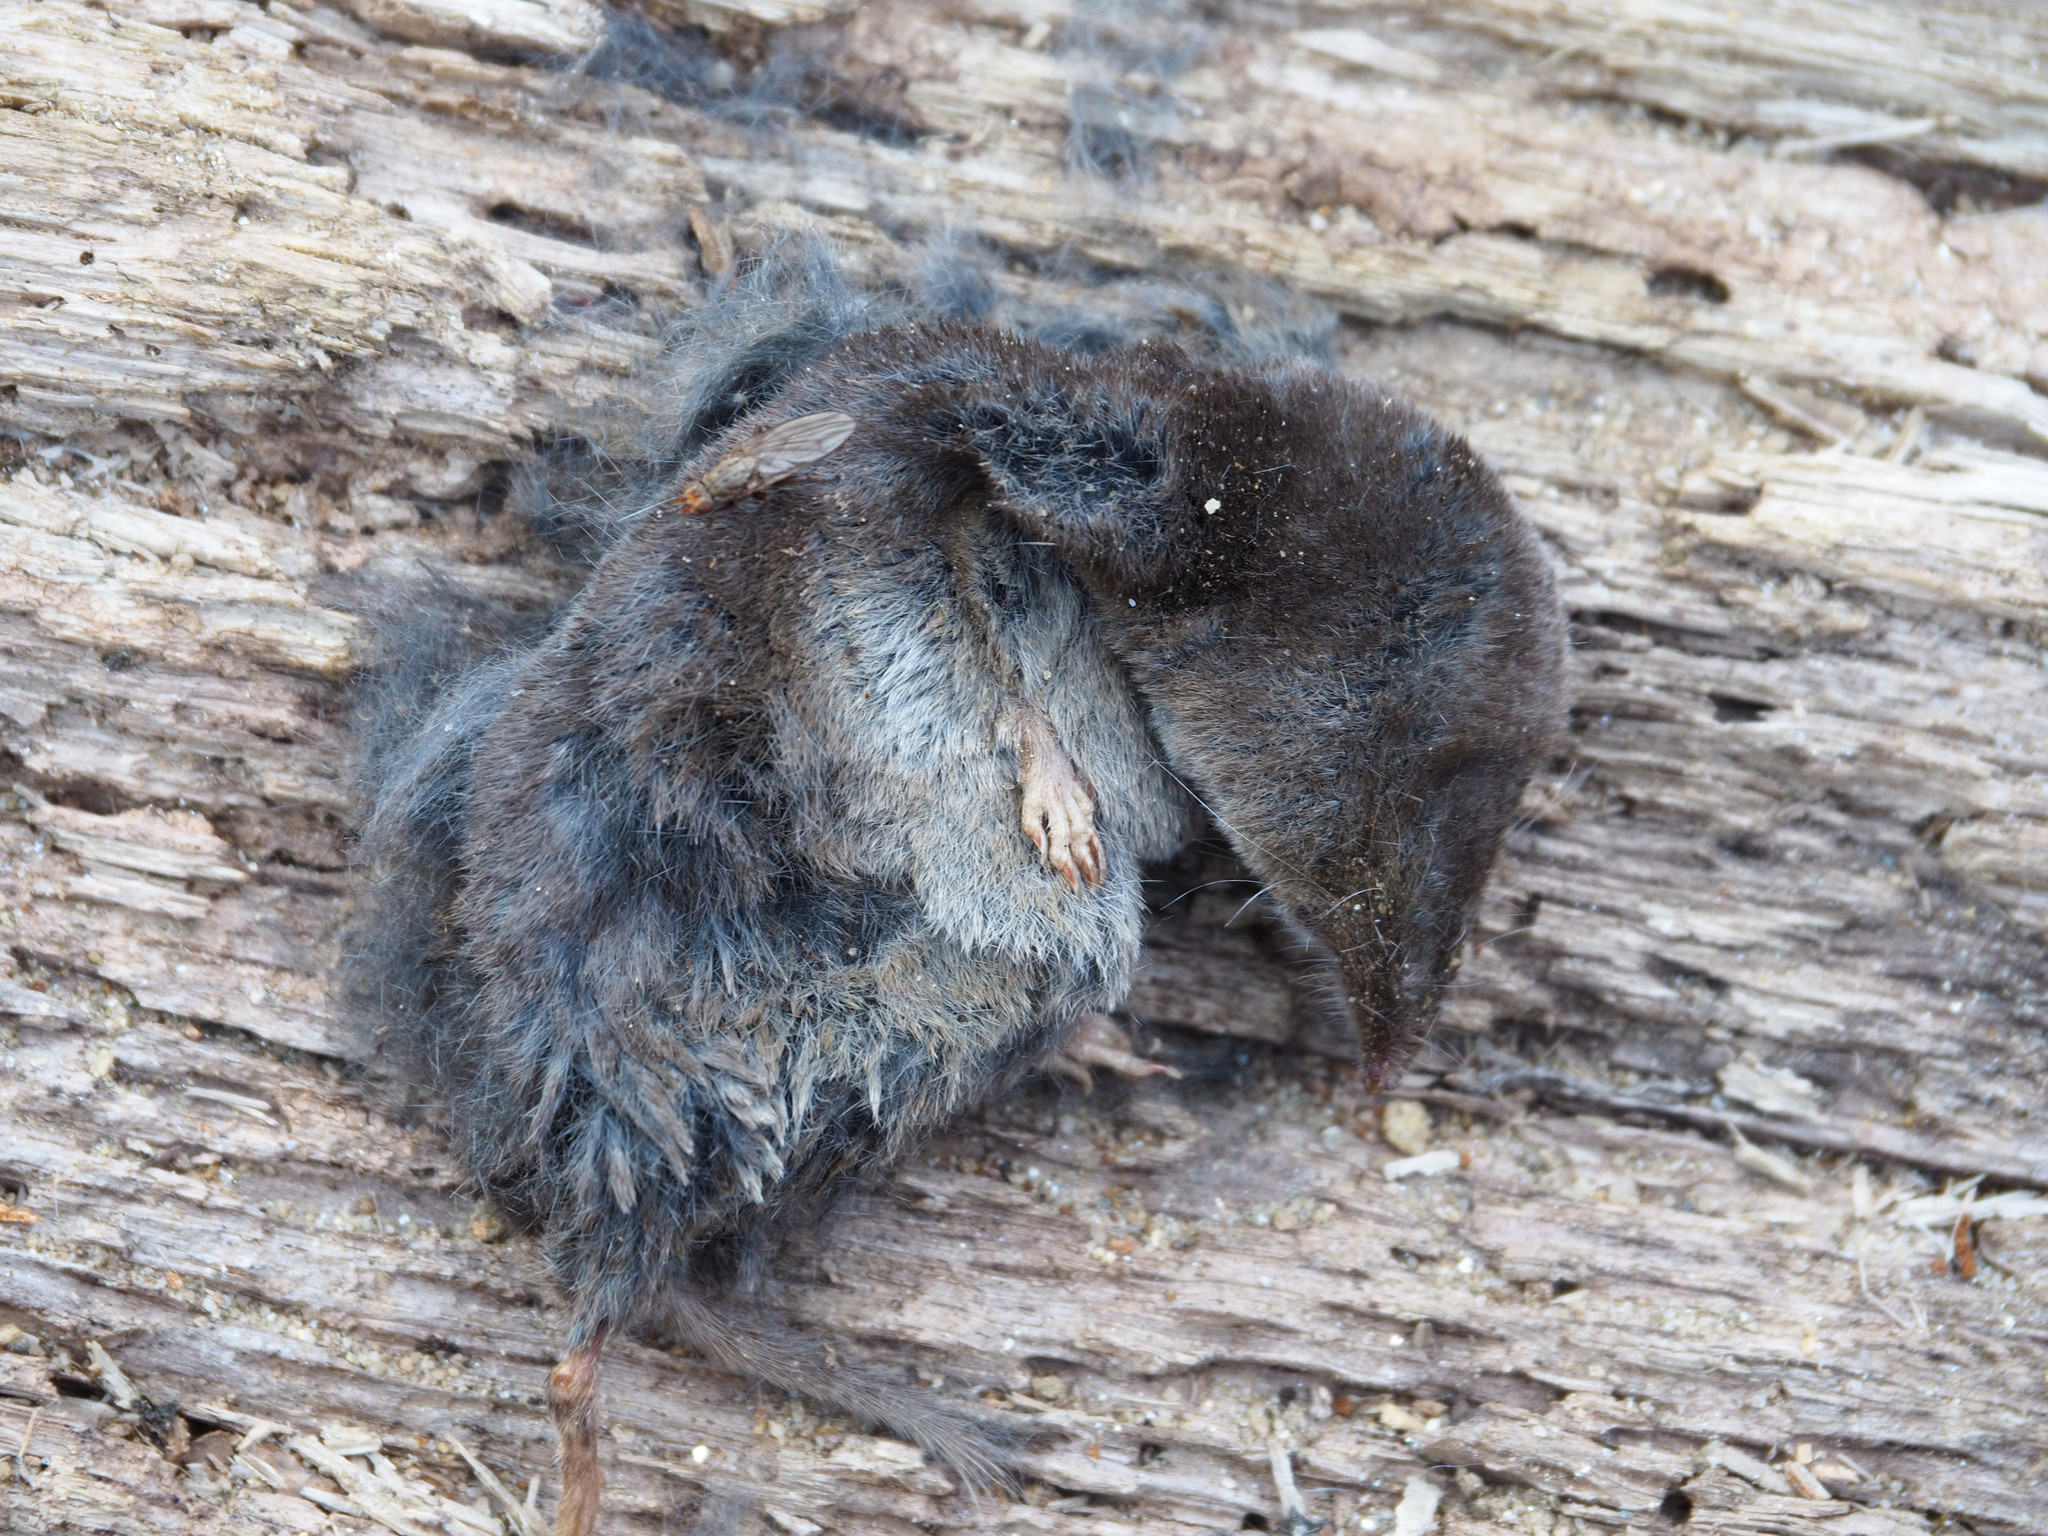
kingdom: Animalia
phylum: Chordata
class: Mammalia
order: Soricomorpha
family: Soricidae
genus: Blarina
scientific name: Blarina brevicauda
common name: Northern short-tailed shrew
